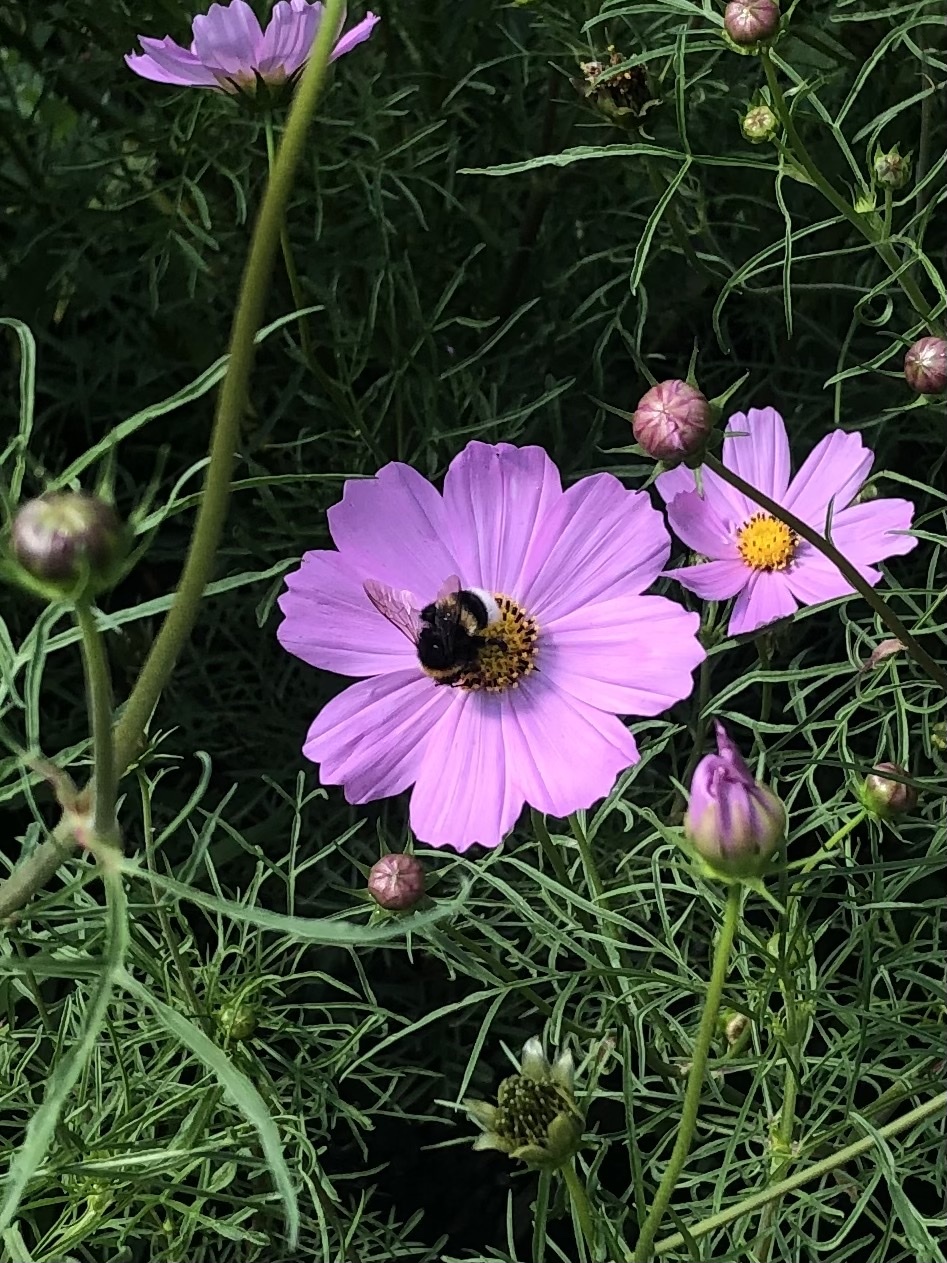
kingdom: Animalia
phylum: Arthropoda
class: Insecta
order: Hymenoptera
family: Apidae
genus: Bombus
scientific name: Bombus
